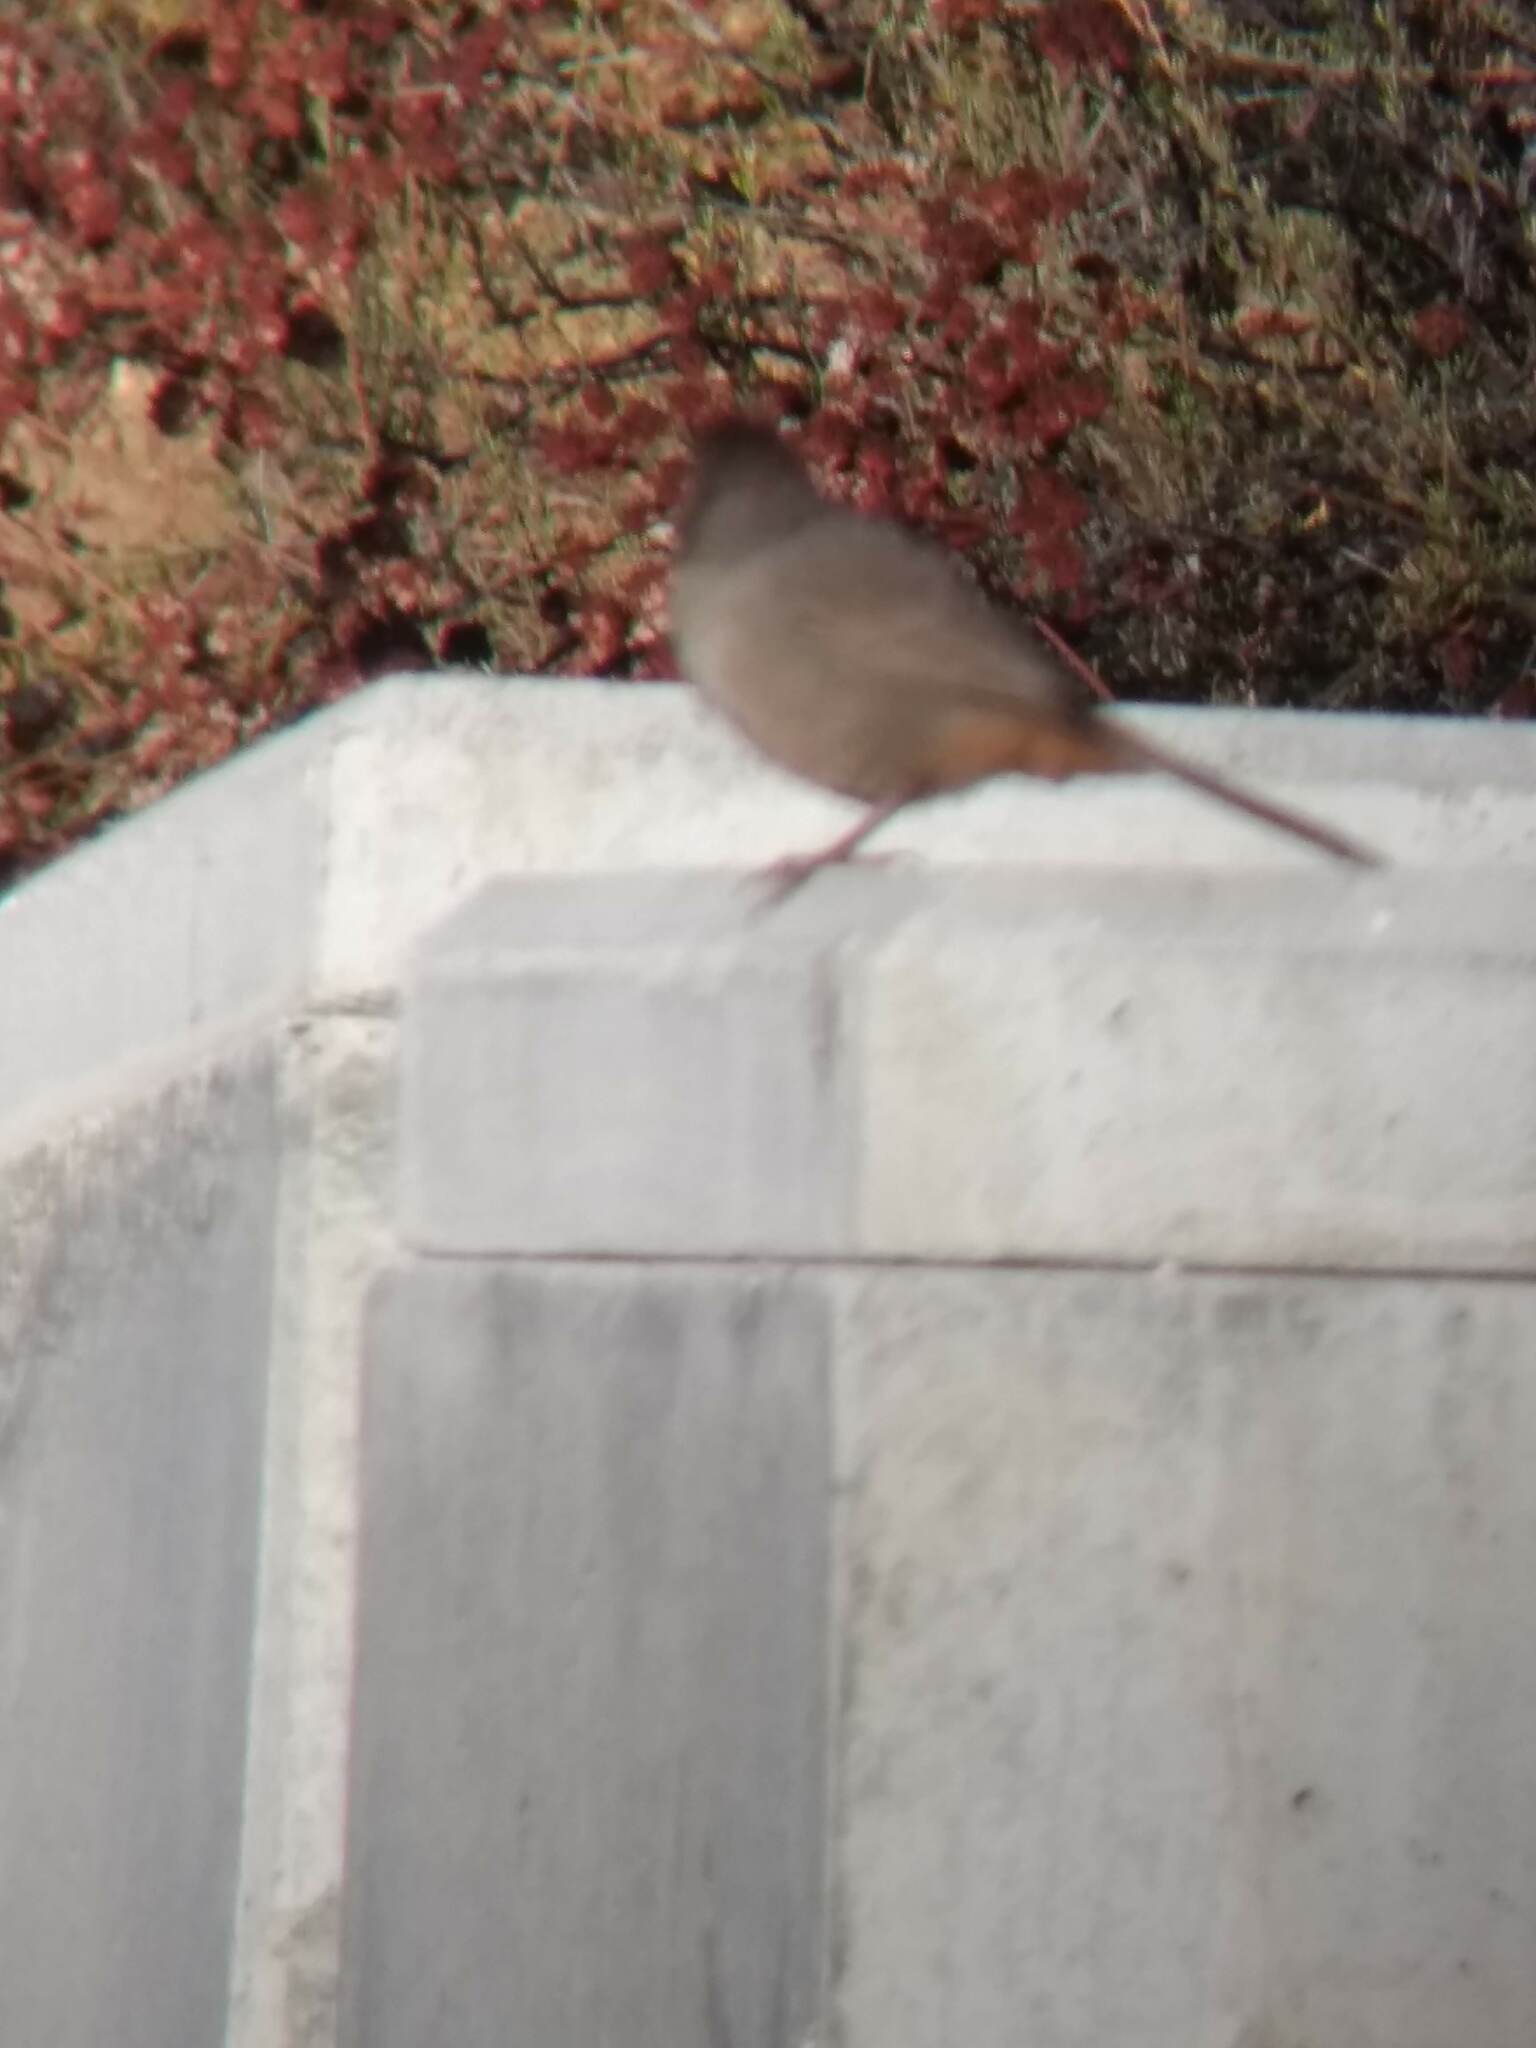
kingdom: Animalia
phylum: Chordata
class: Aves
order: Passeriformes
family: Passerellidae
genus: Melozone
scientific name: Melozone crissalis
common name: California towhee
